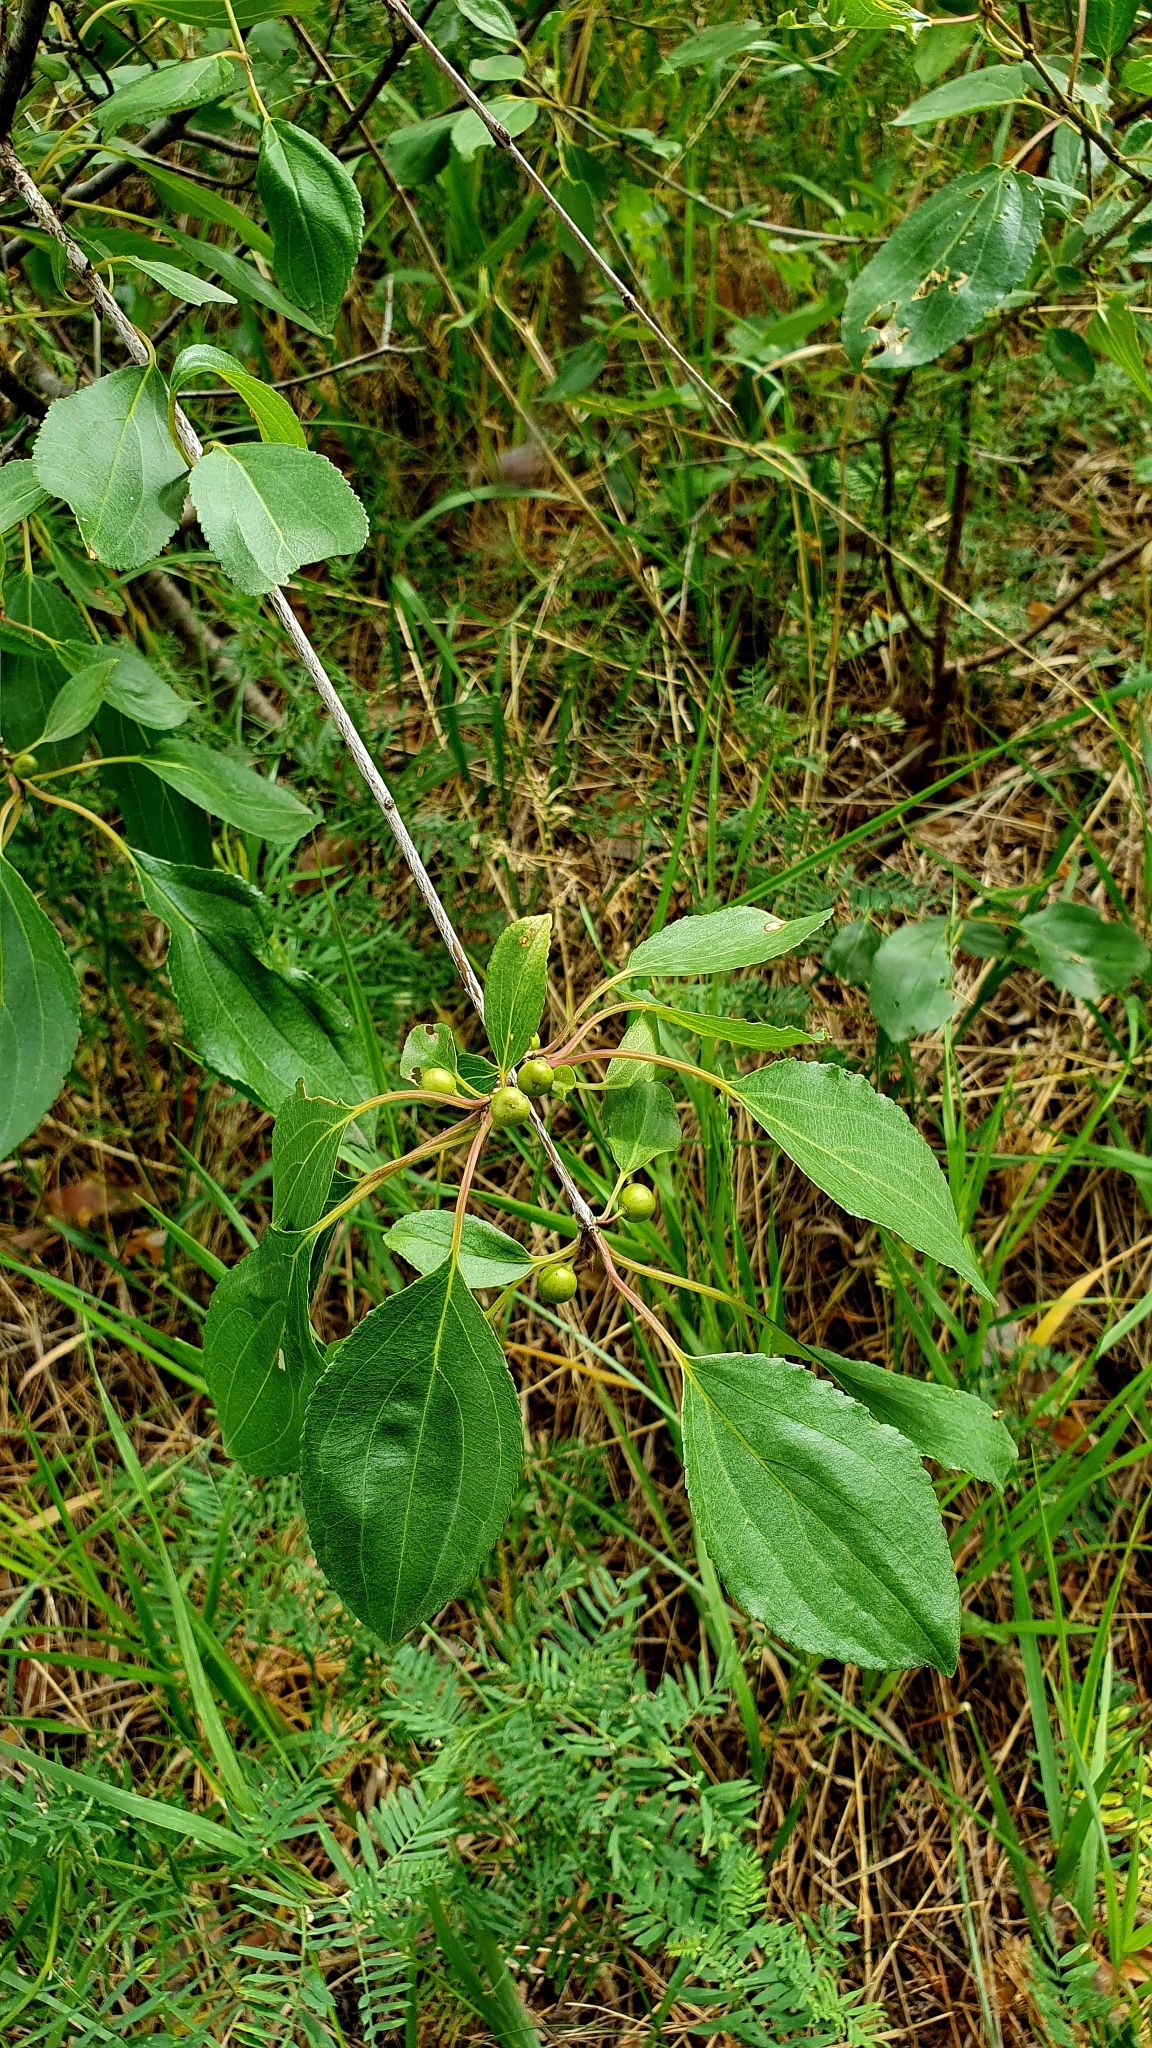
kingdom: Plantae
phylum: Tracheophyta
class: Magnoliopsida
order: Rosales
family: Rhamnaceae
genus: Rhamnus
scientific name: Rhamnus cathartica
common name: Common buckthorn
